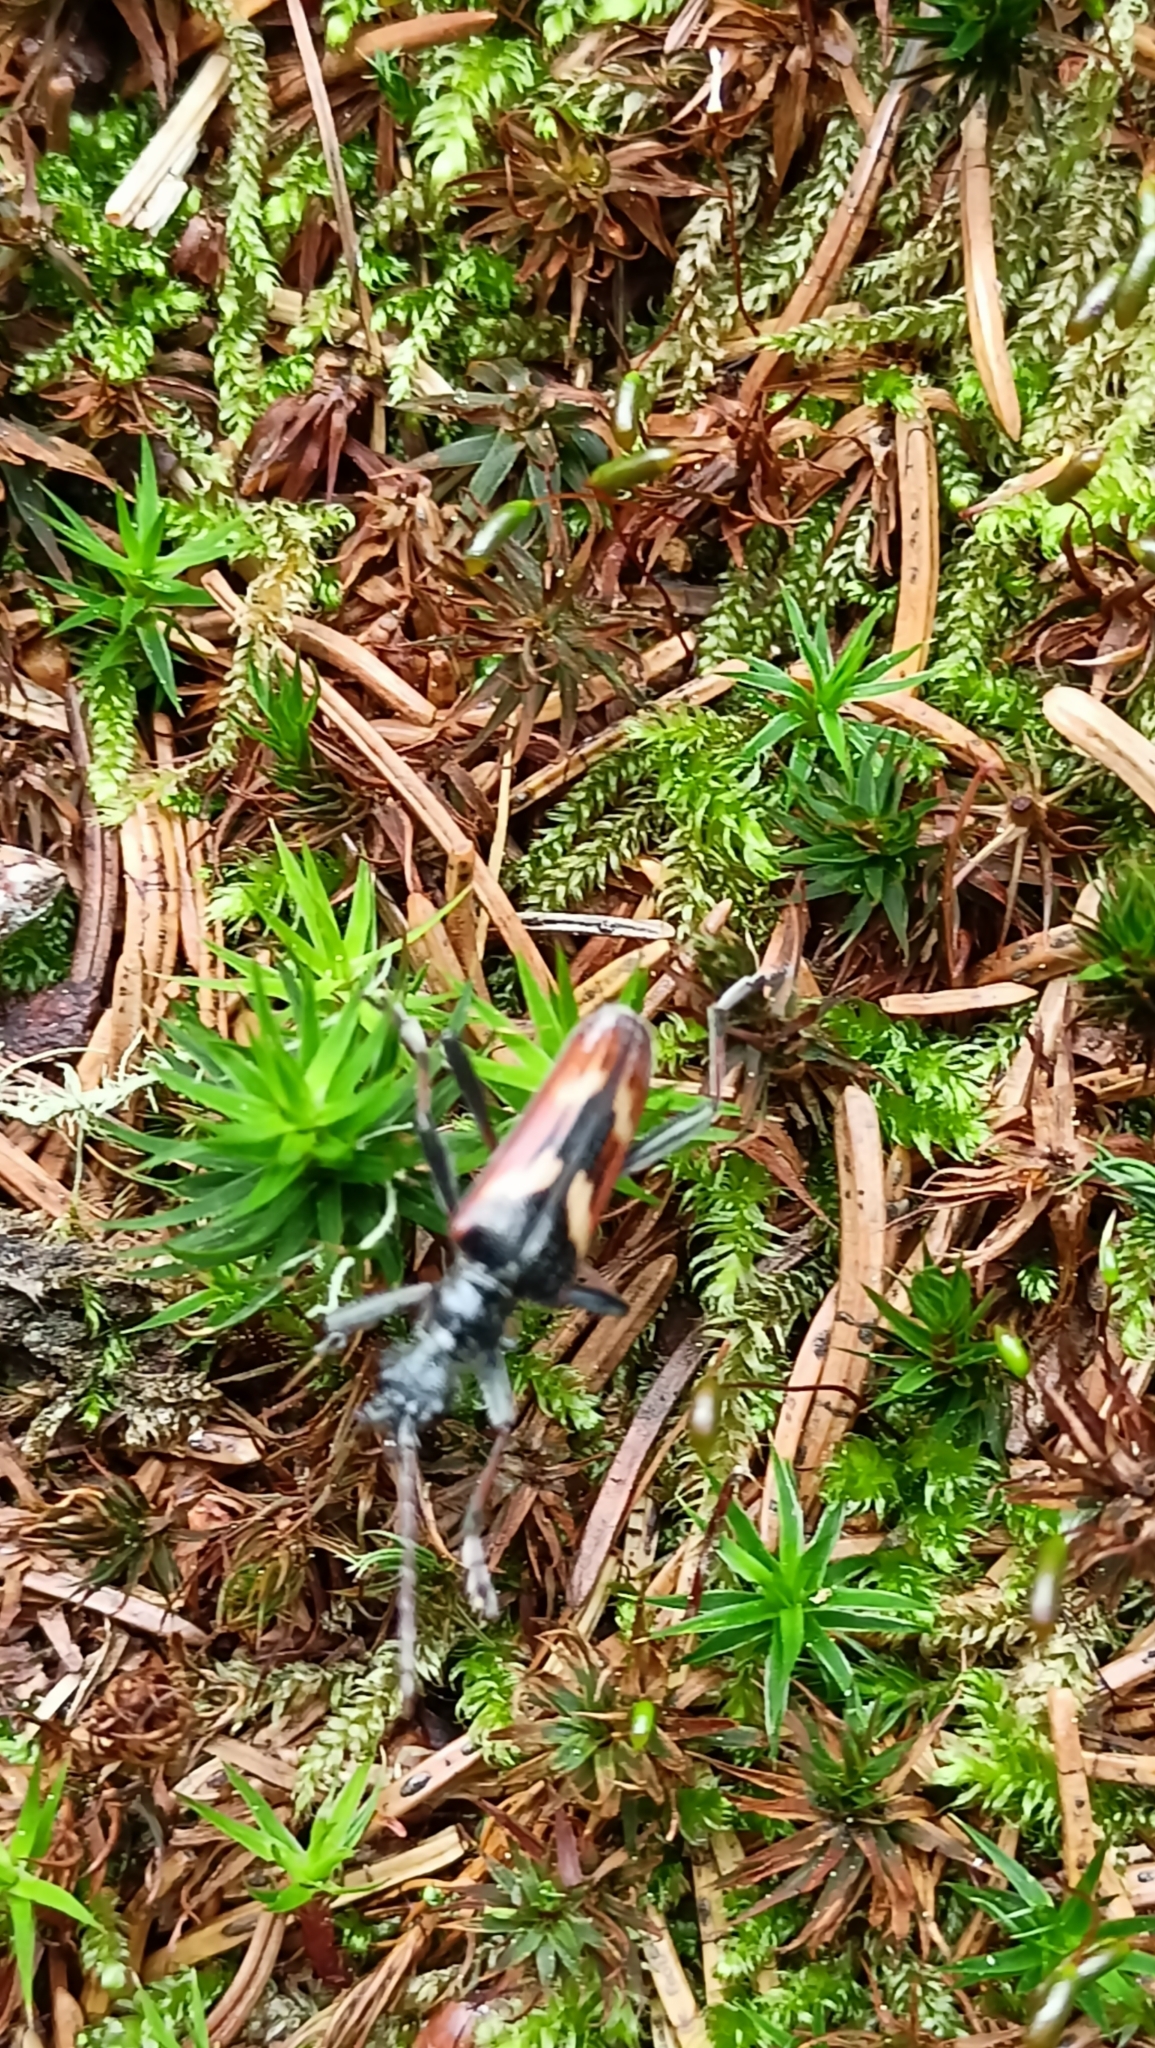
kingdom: Animalia
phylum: Arthropoda
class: Insecta
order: Coleoptera
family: Cerambycidae
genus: Rhagium
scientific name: Rhagium bifasciatum
